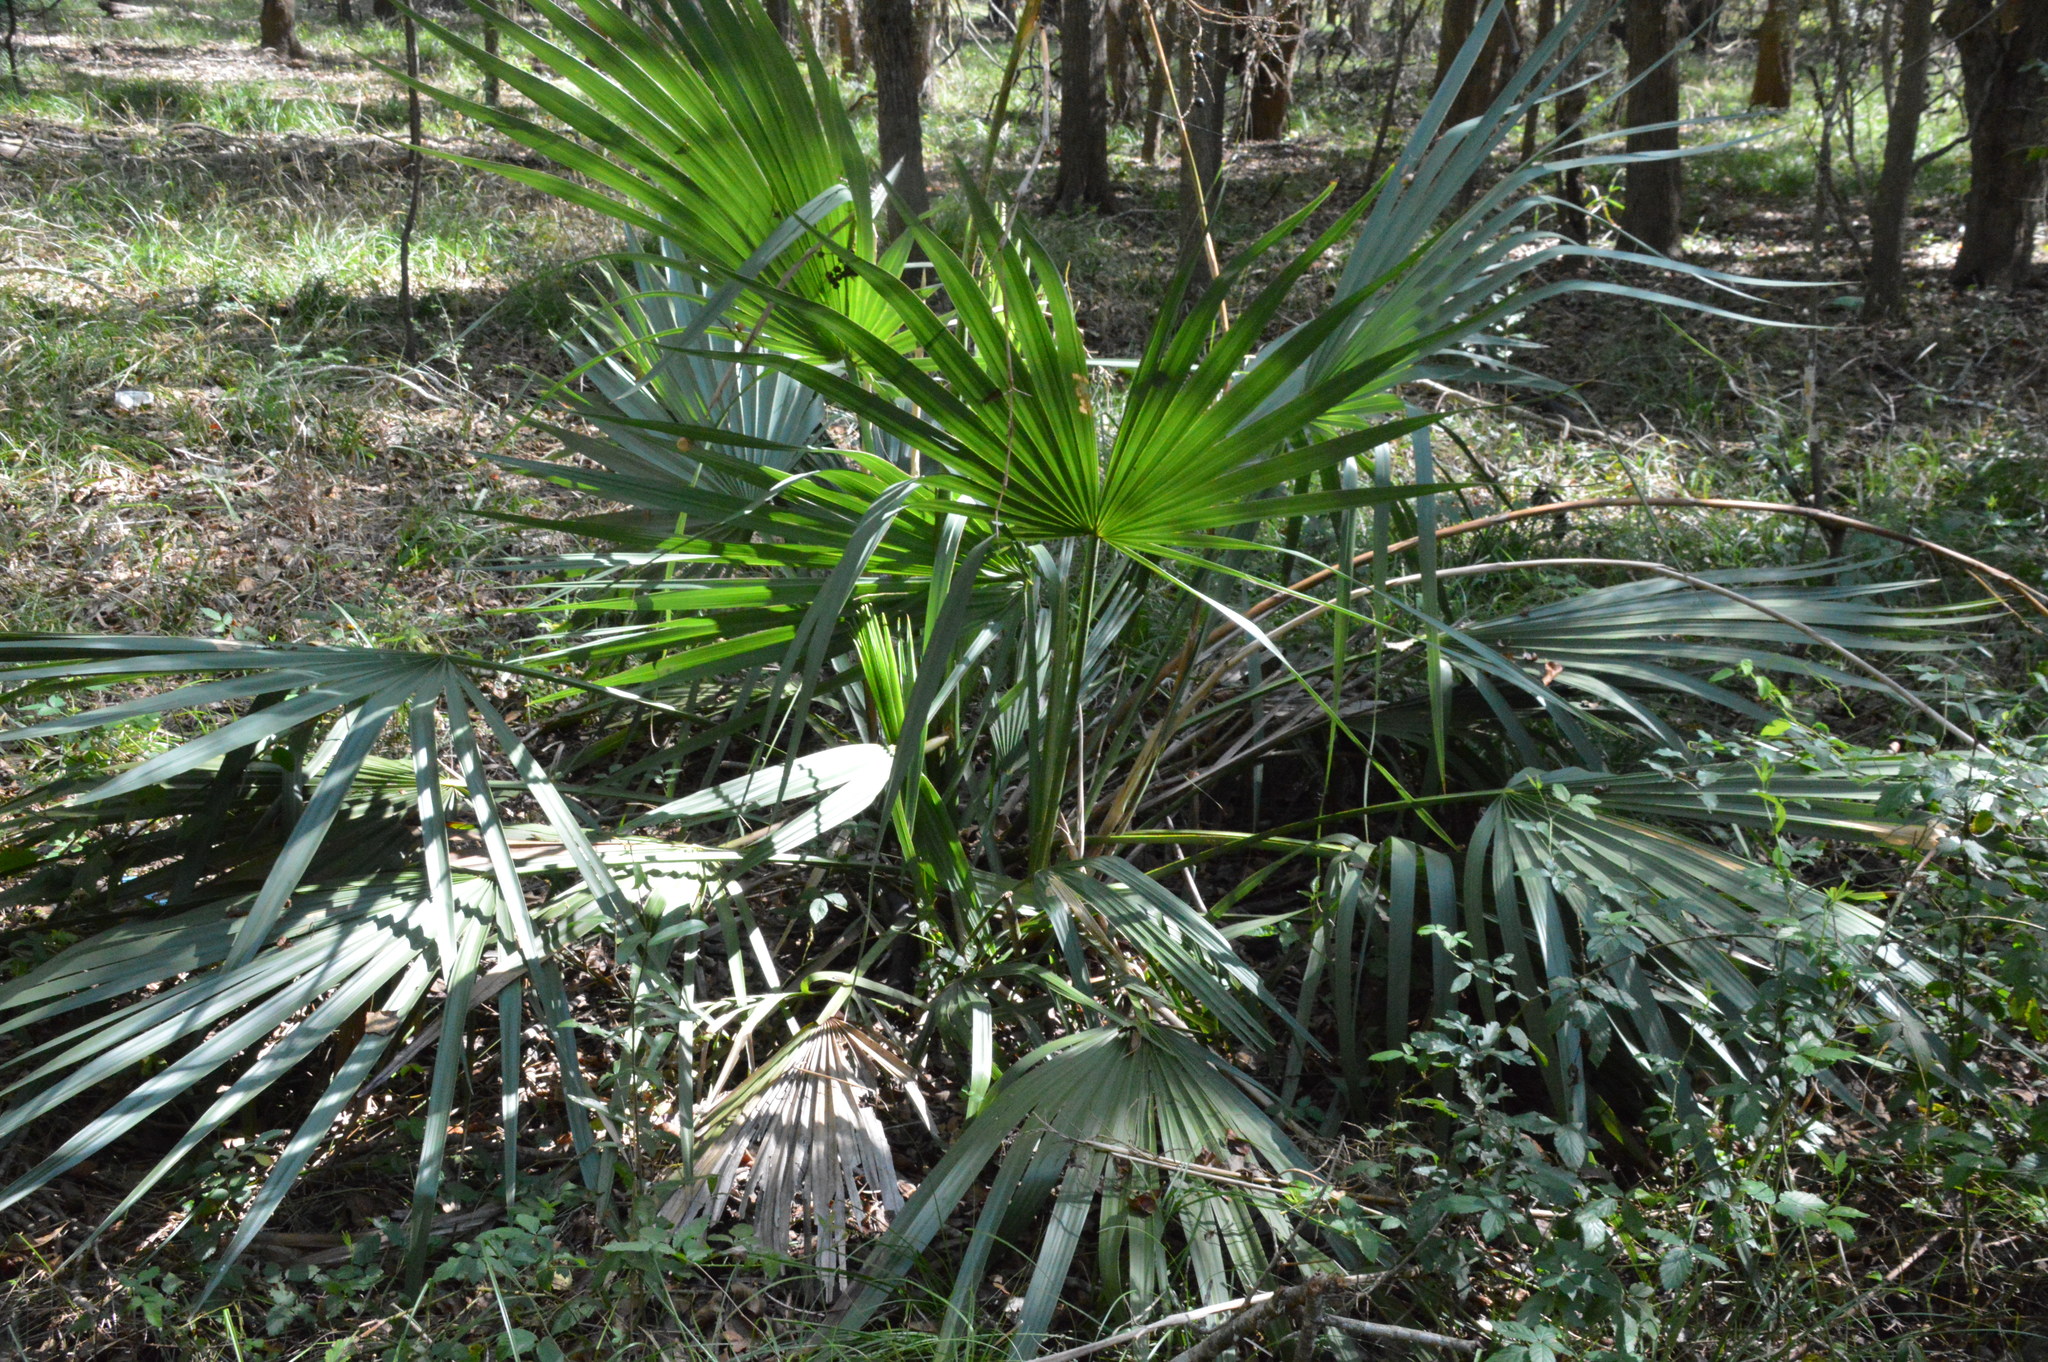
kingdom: Plantae
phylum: Tracheophyta
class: Liliopsida
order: Arecales
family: Arecaceae
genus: Sabal
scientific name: Sabal minor
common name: Dwarf palmetto
